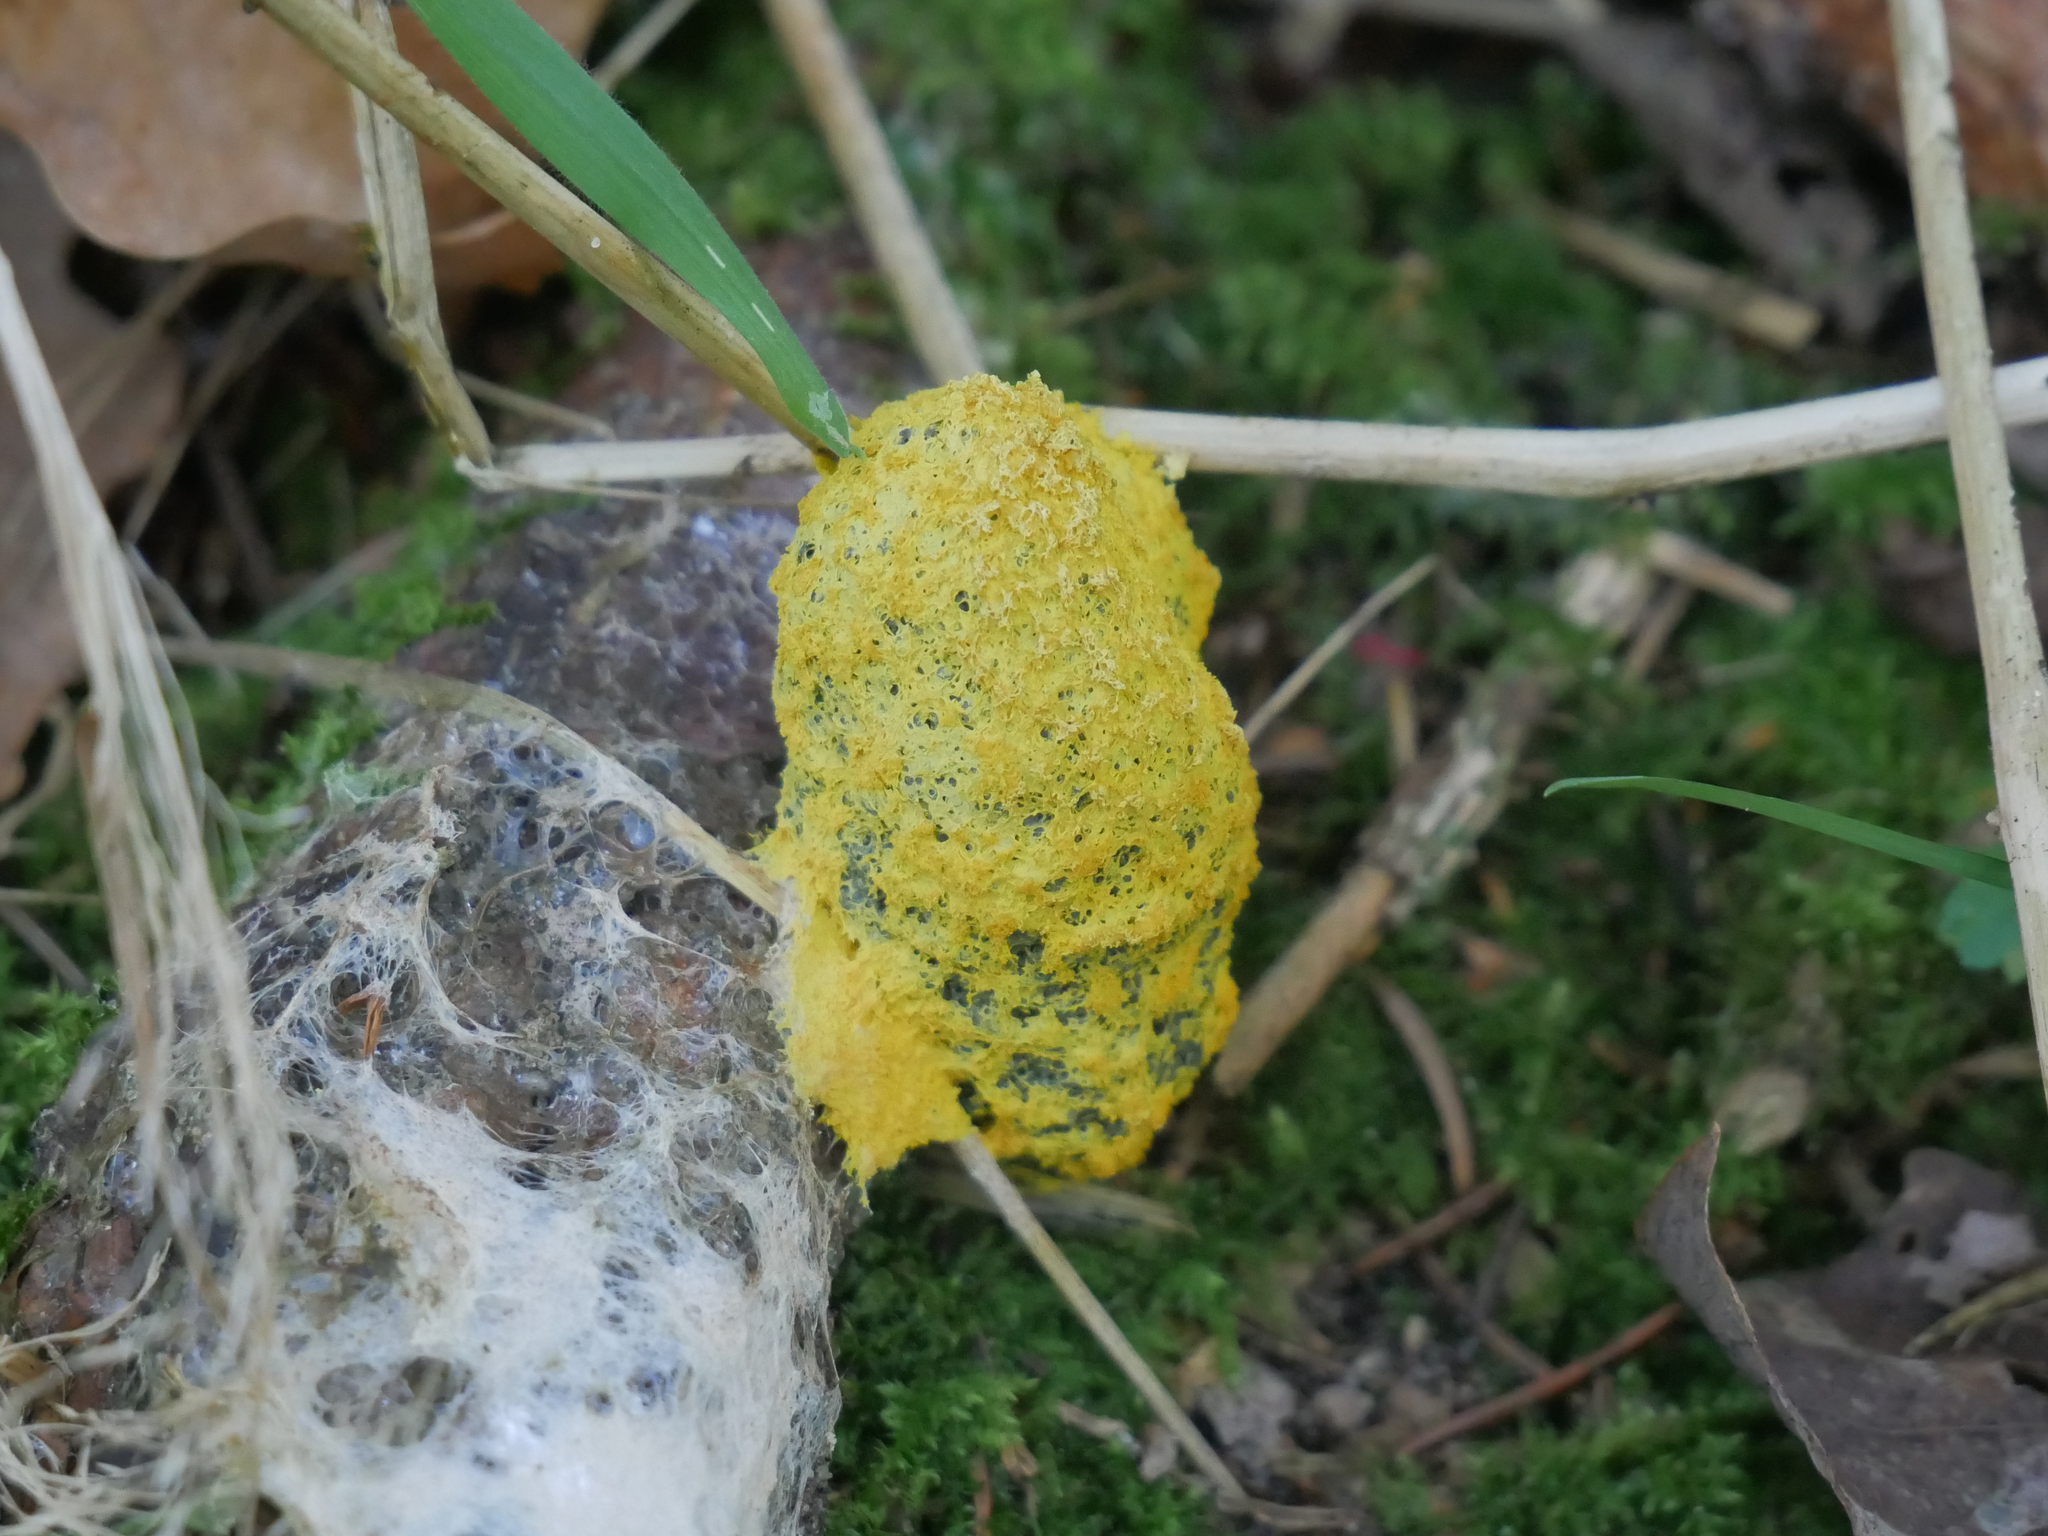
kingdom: Protozoa
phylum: Mycetozoa
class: Myxomycetes
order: Physarales
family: Physaraceae
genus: Fuligo
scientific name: Fuligo septica
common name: Dog vomit slime mold
